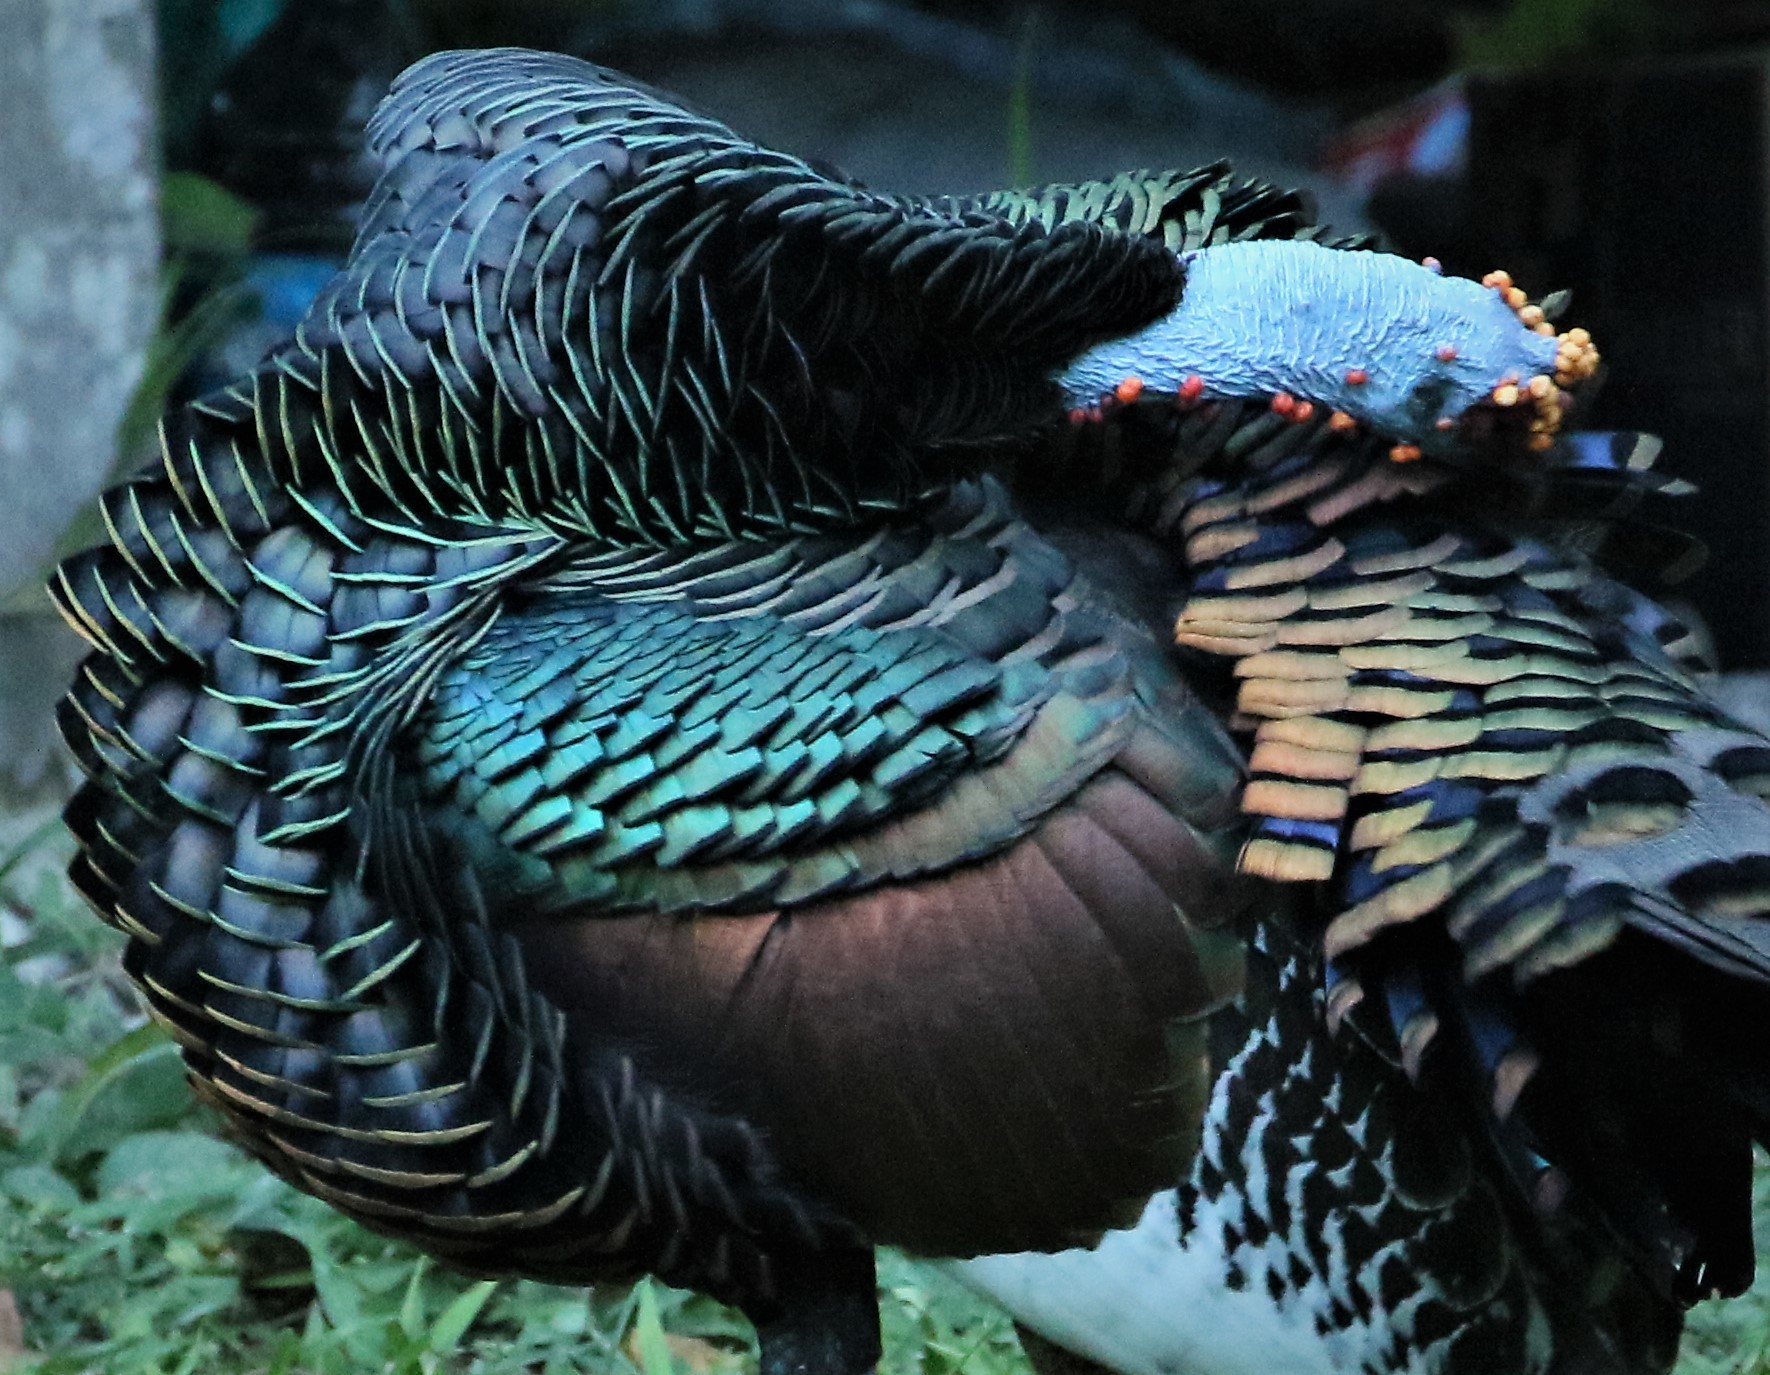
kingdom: Animalia
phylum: Chordata
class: Aves
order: Galliformes
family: Phasianidae
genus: Meleagris
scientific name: Meleagris ocellata
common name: Ocellated turkey
